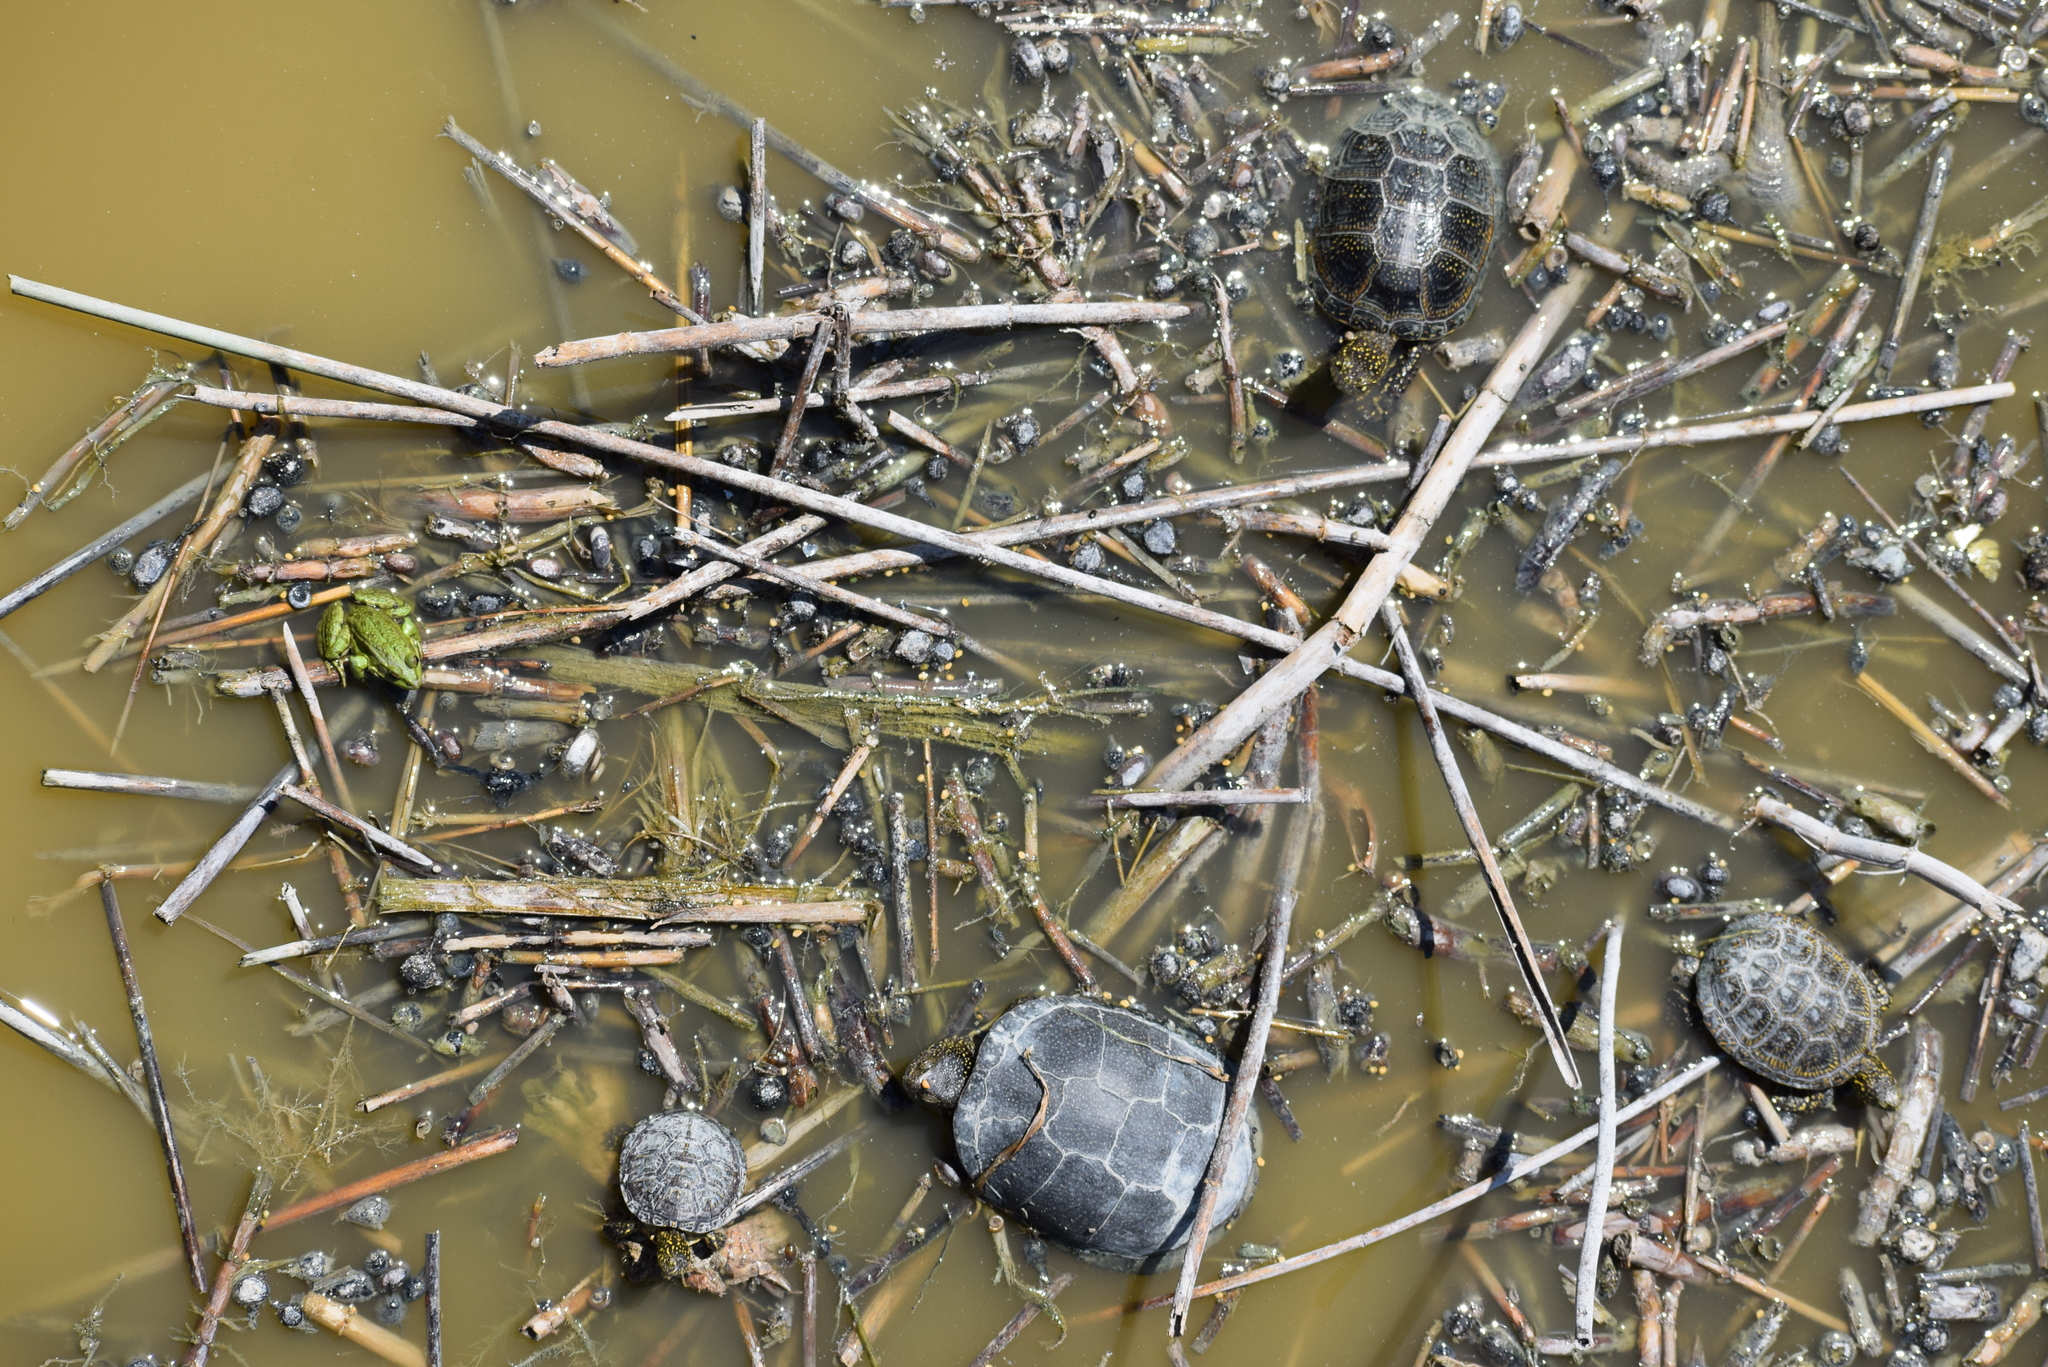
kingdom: Animalia
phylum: Chordata
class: Testudines
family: Emydidae
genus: Emys
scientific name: Emys orbicularis
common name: European pond turtle
